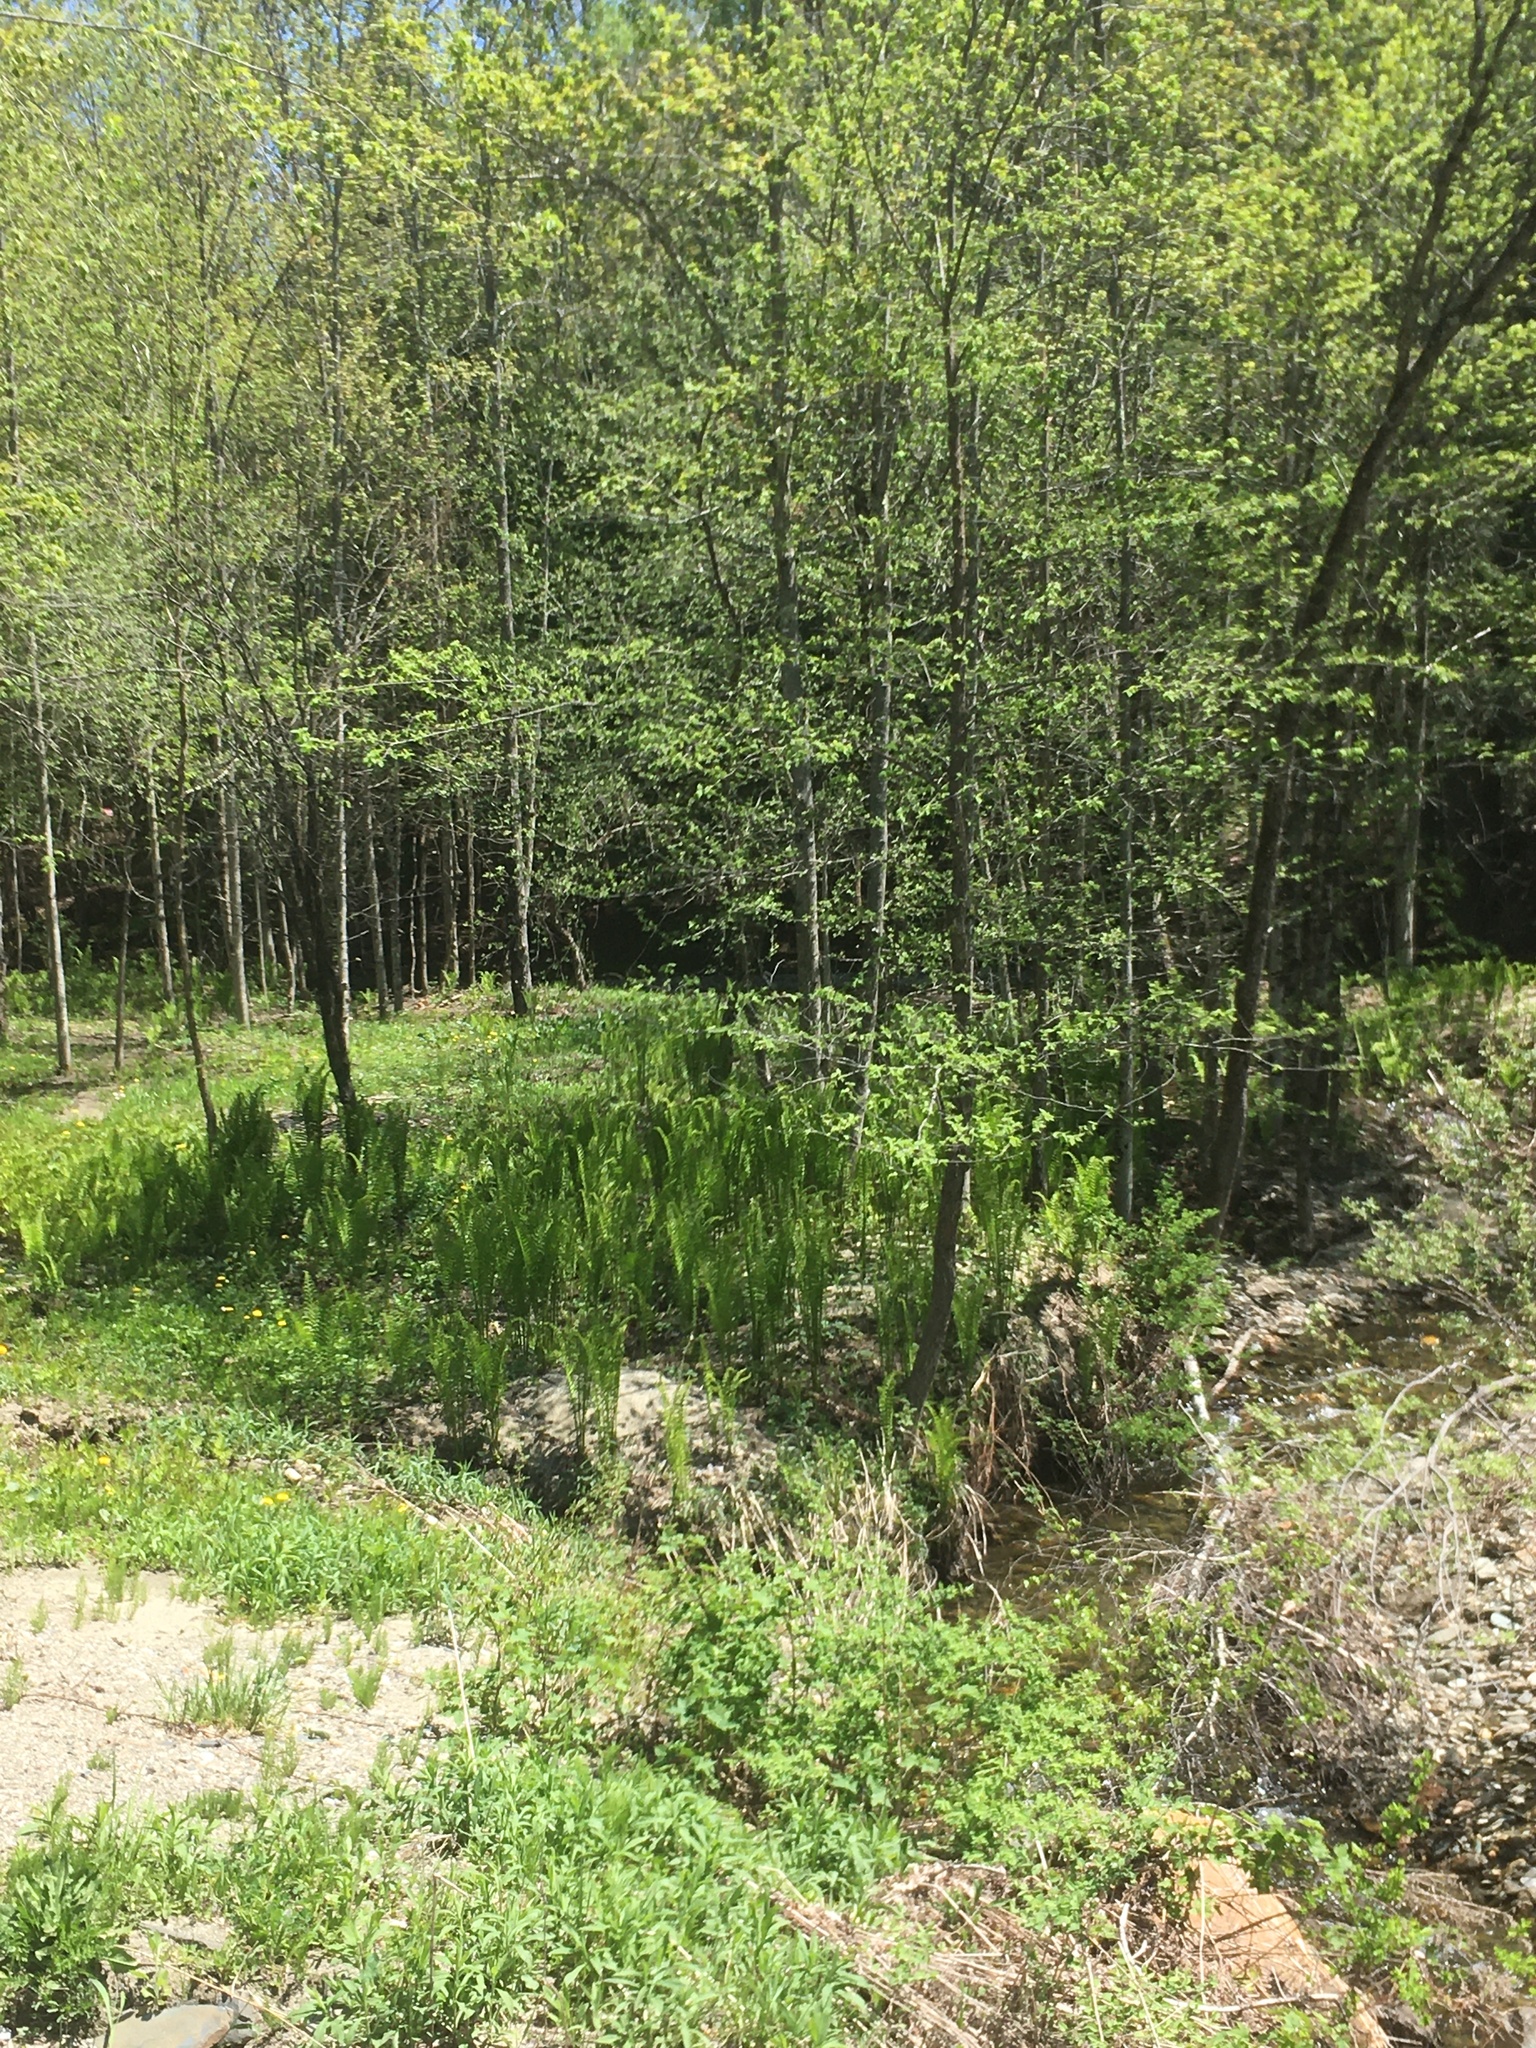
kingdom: Plantae
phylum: Tracheophyta
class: Polypodiopsida
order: Polypodiales
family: Onocleaceae
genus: Matteuccia
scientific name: Matteuccia struthiopteris
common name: Ostrich fern
